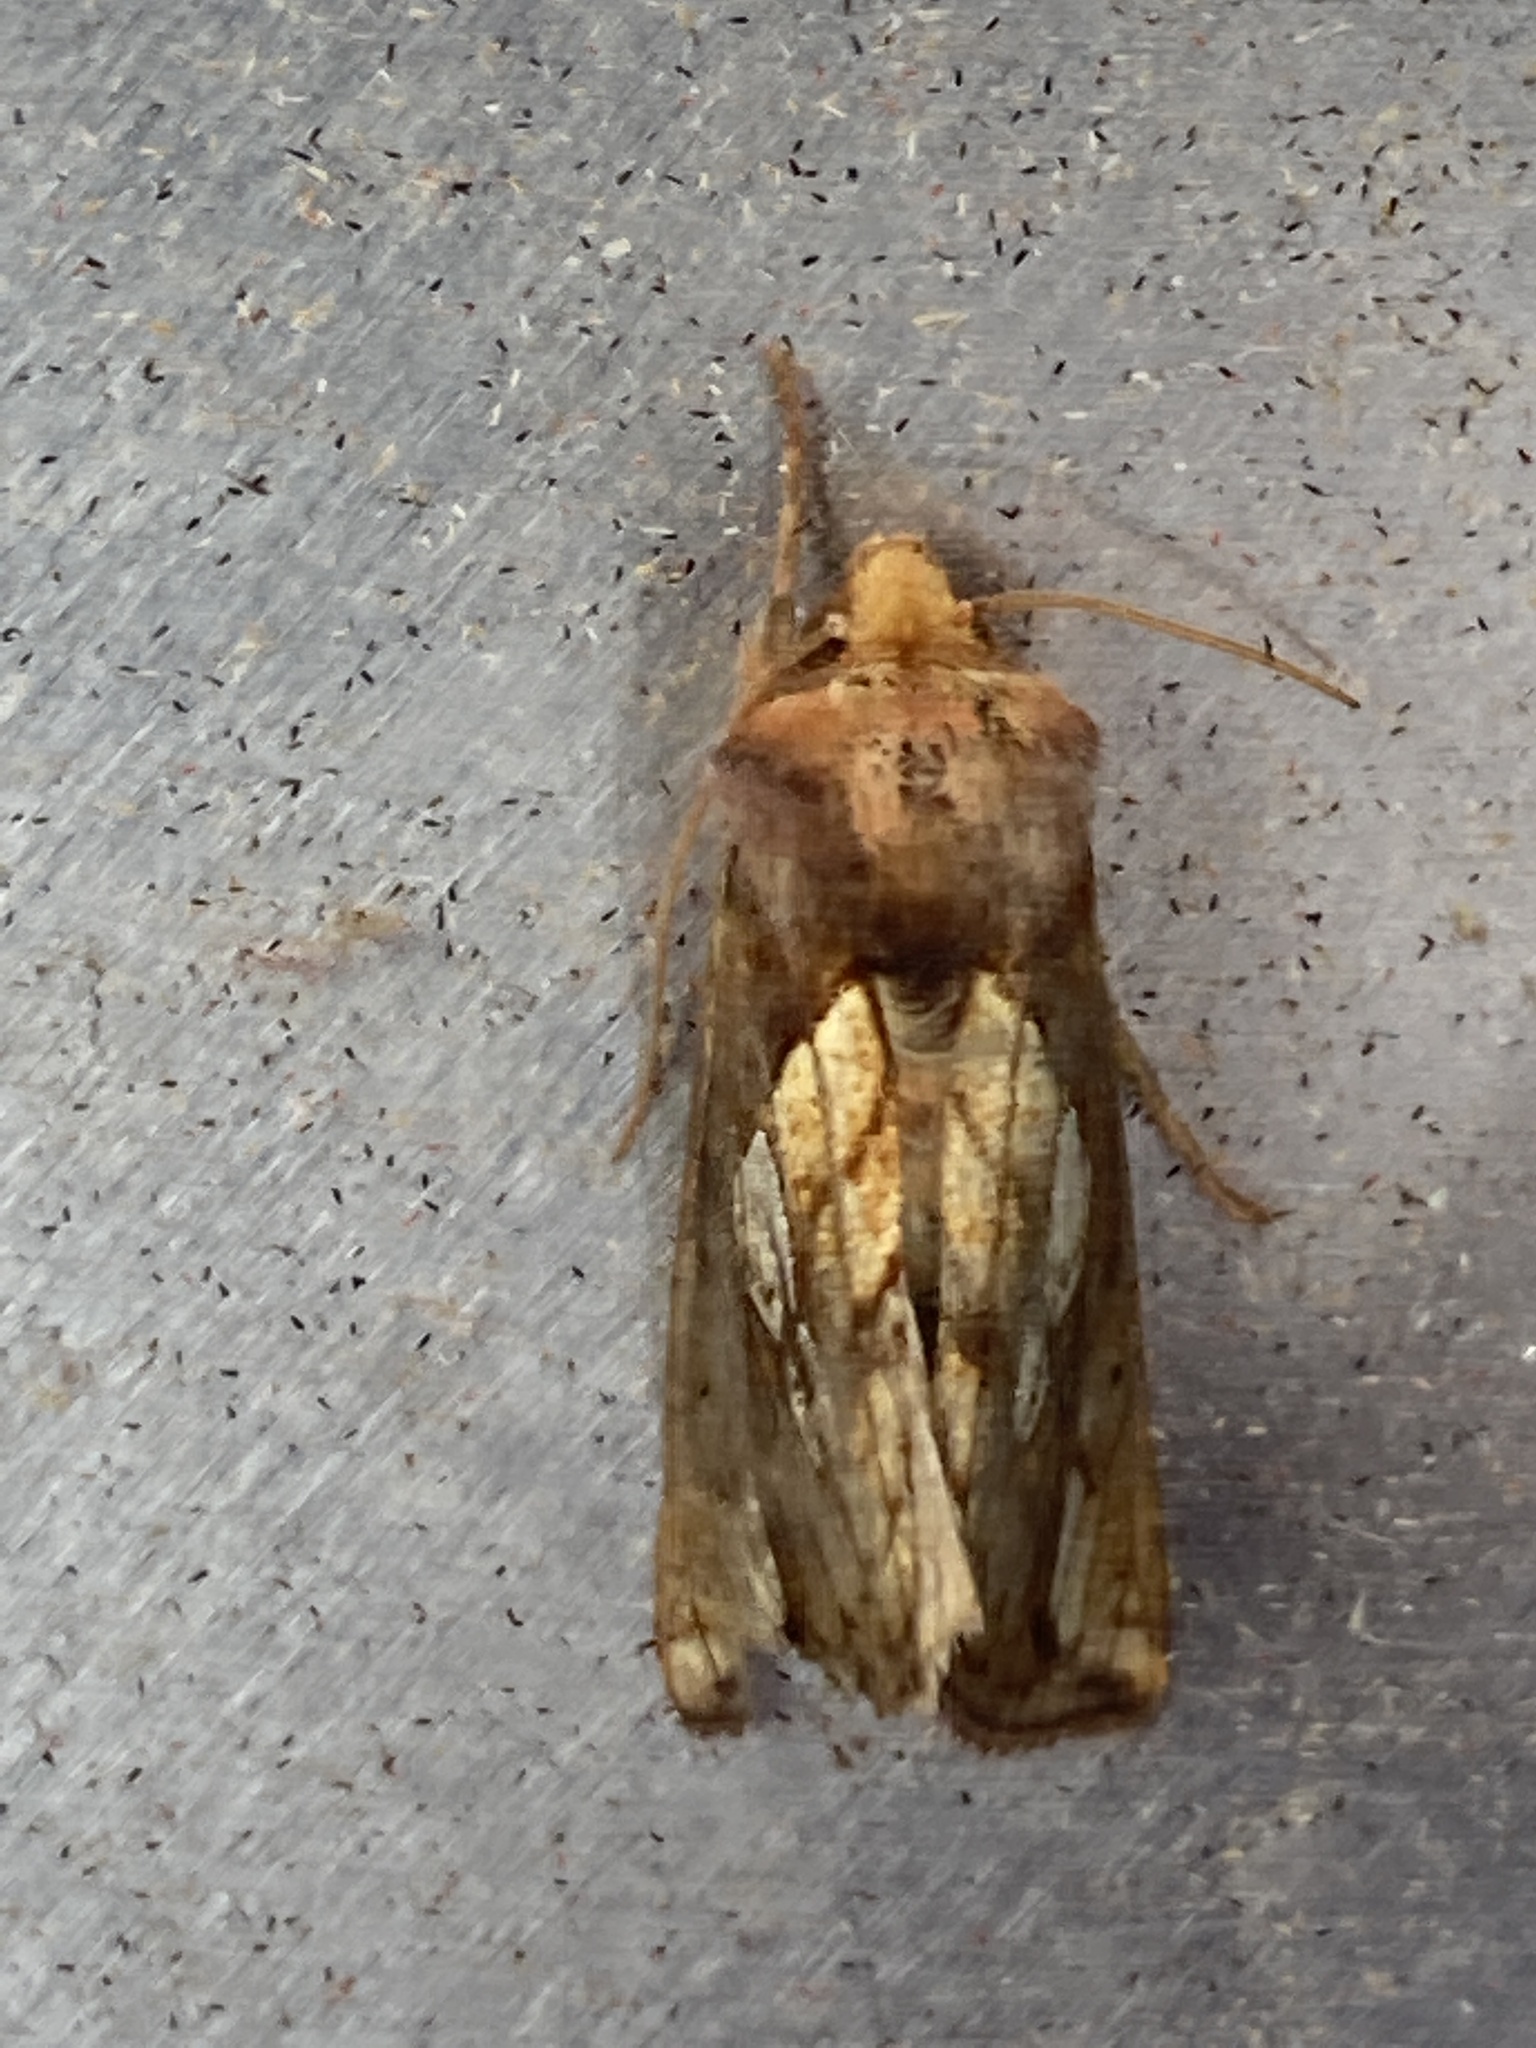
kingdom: Animalia
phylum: Arthropoda
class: Insecta
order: Lepidoptera
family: Noctuidae
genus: Plusia
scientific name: Plusia festucae
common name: Gold spot
